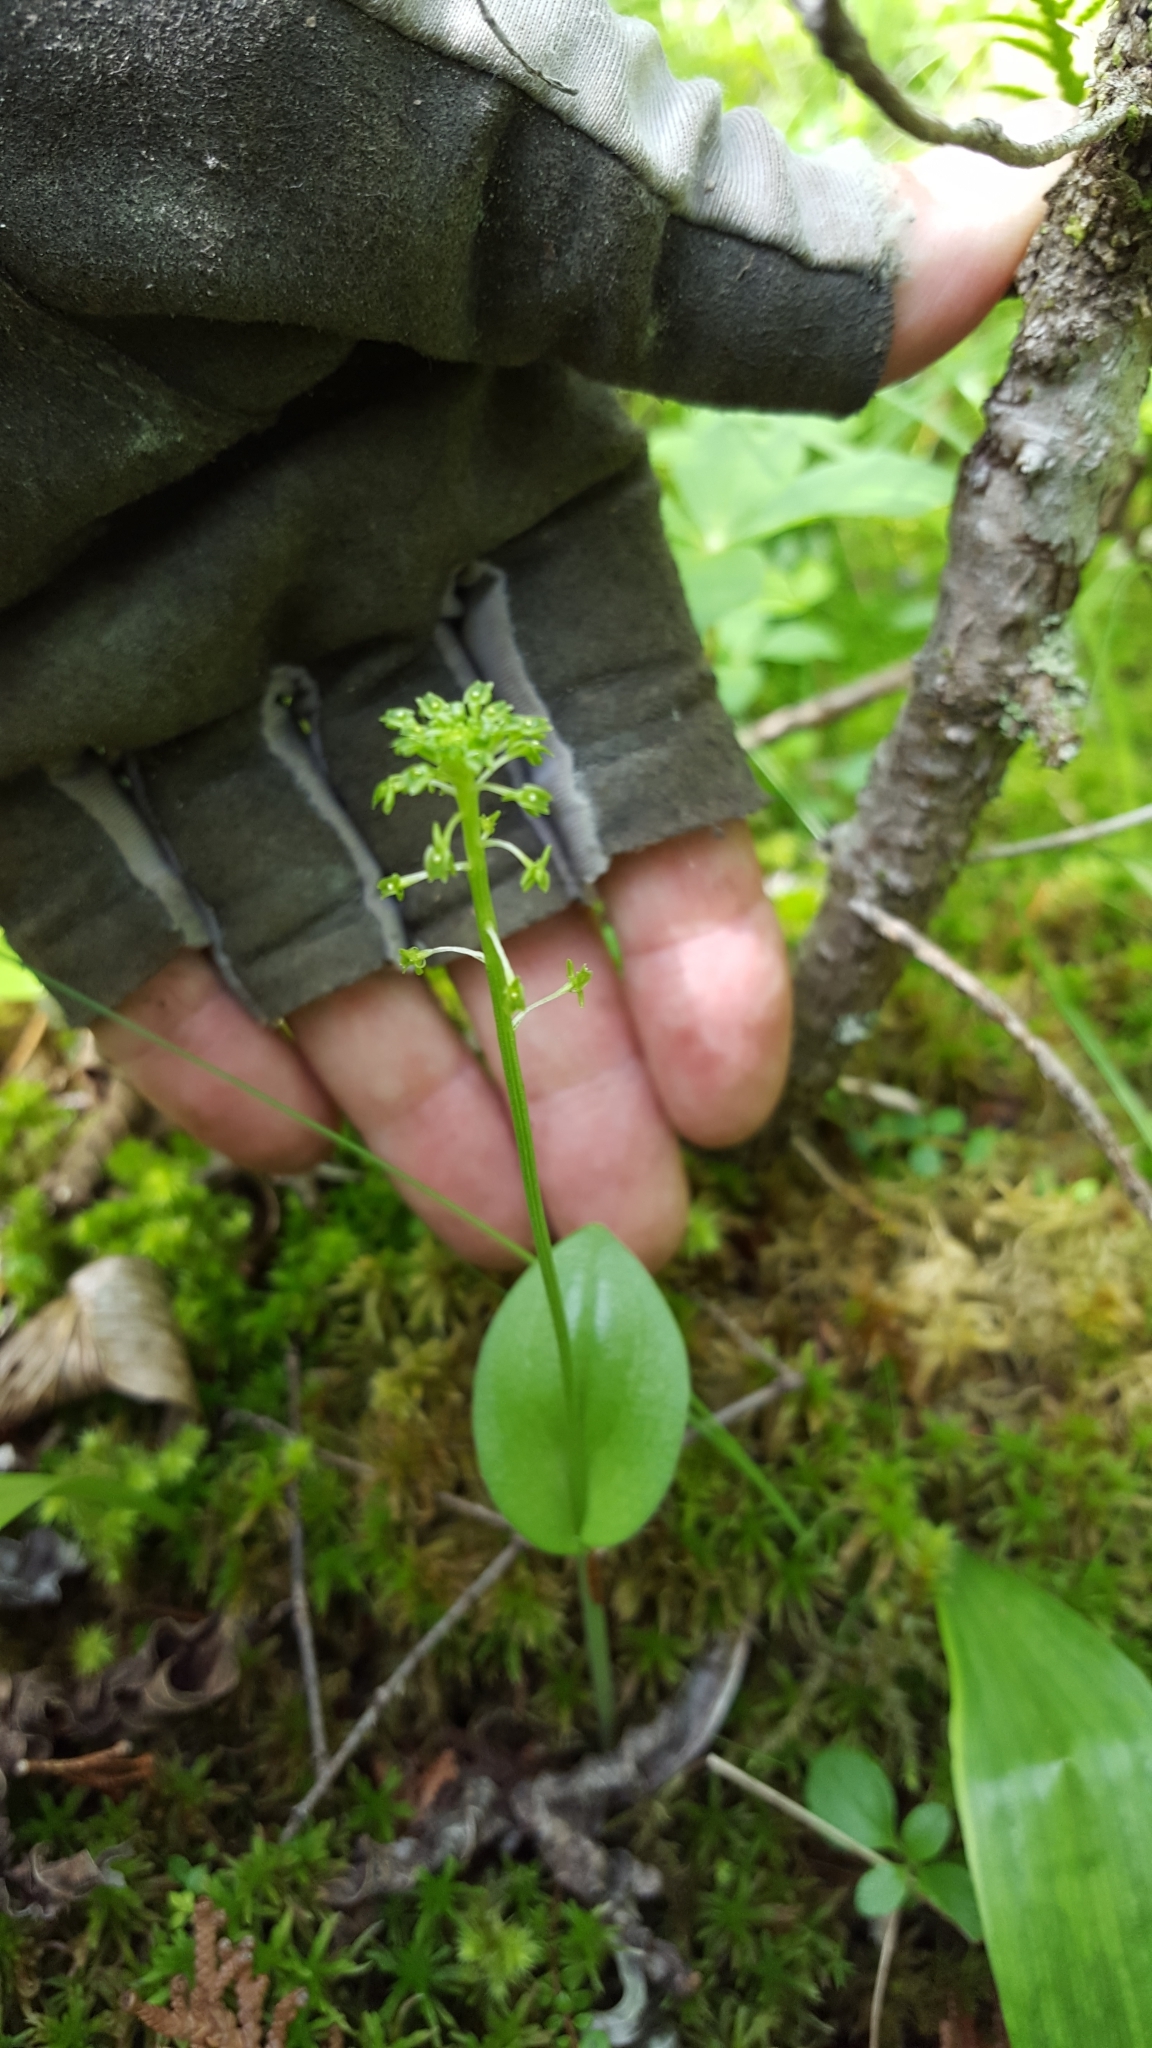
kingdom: Plantae
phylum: Tracheophyta
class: Liliopsida
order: Asparagales
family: Orchidaceae
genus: Malaxis
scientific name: Malaxis unifolia
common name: Green adder's-mouth
